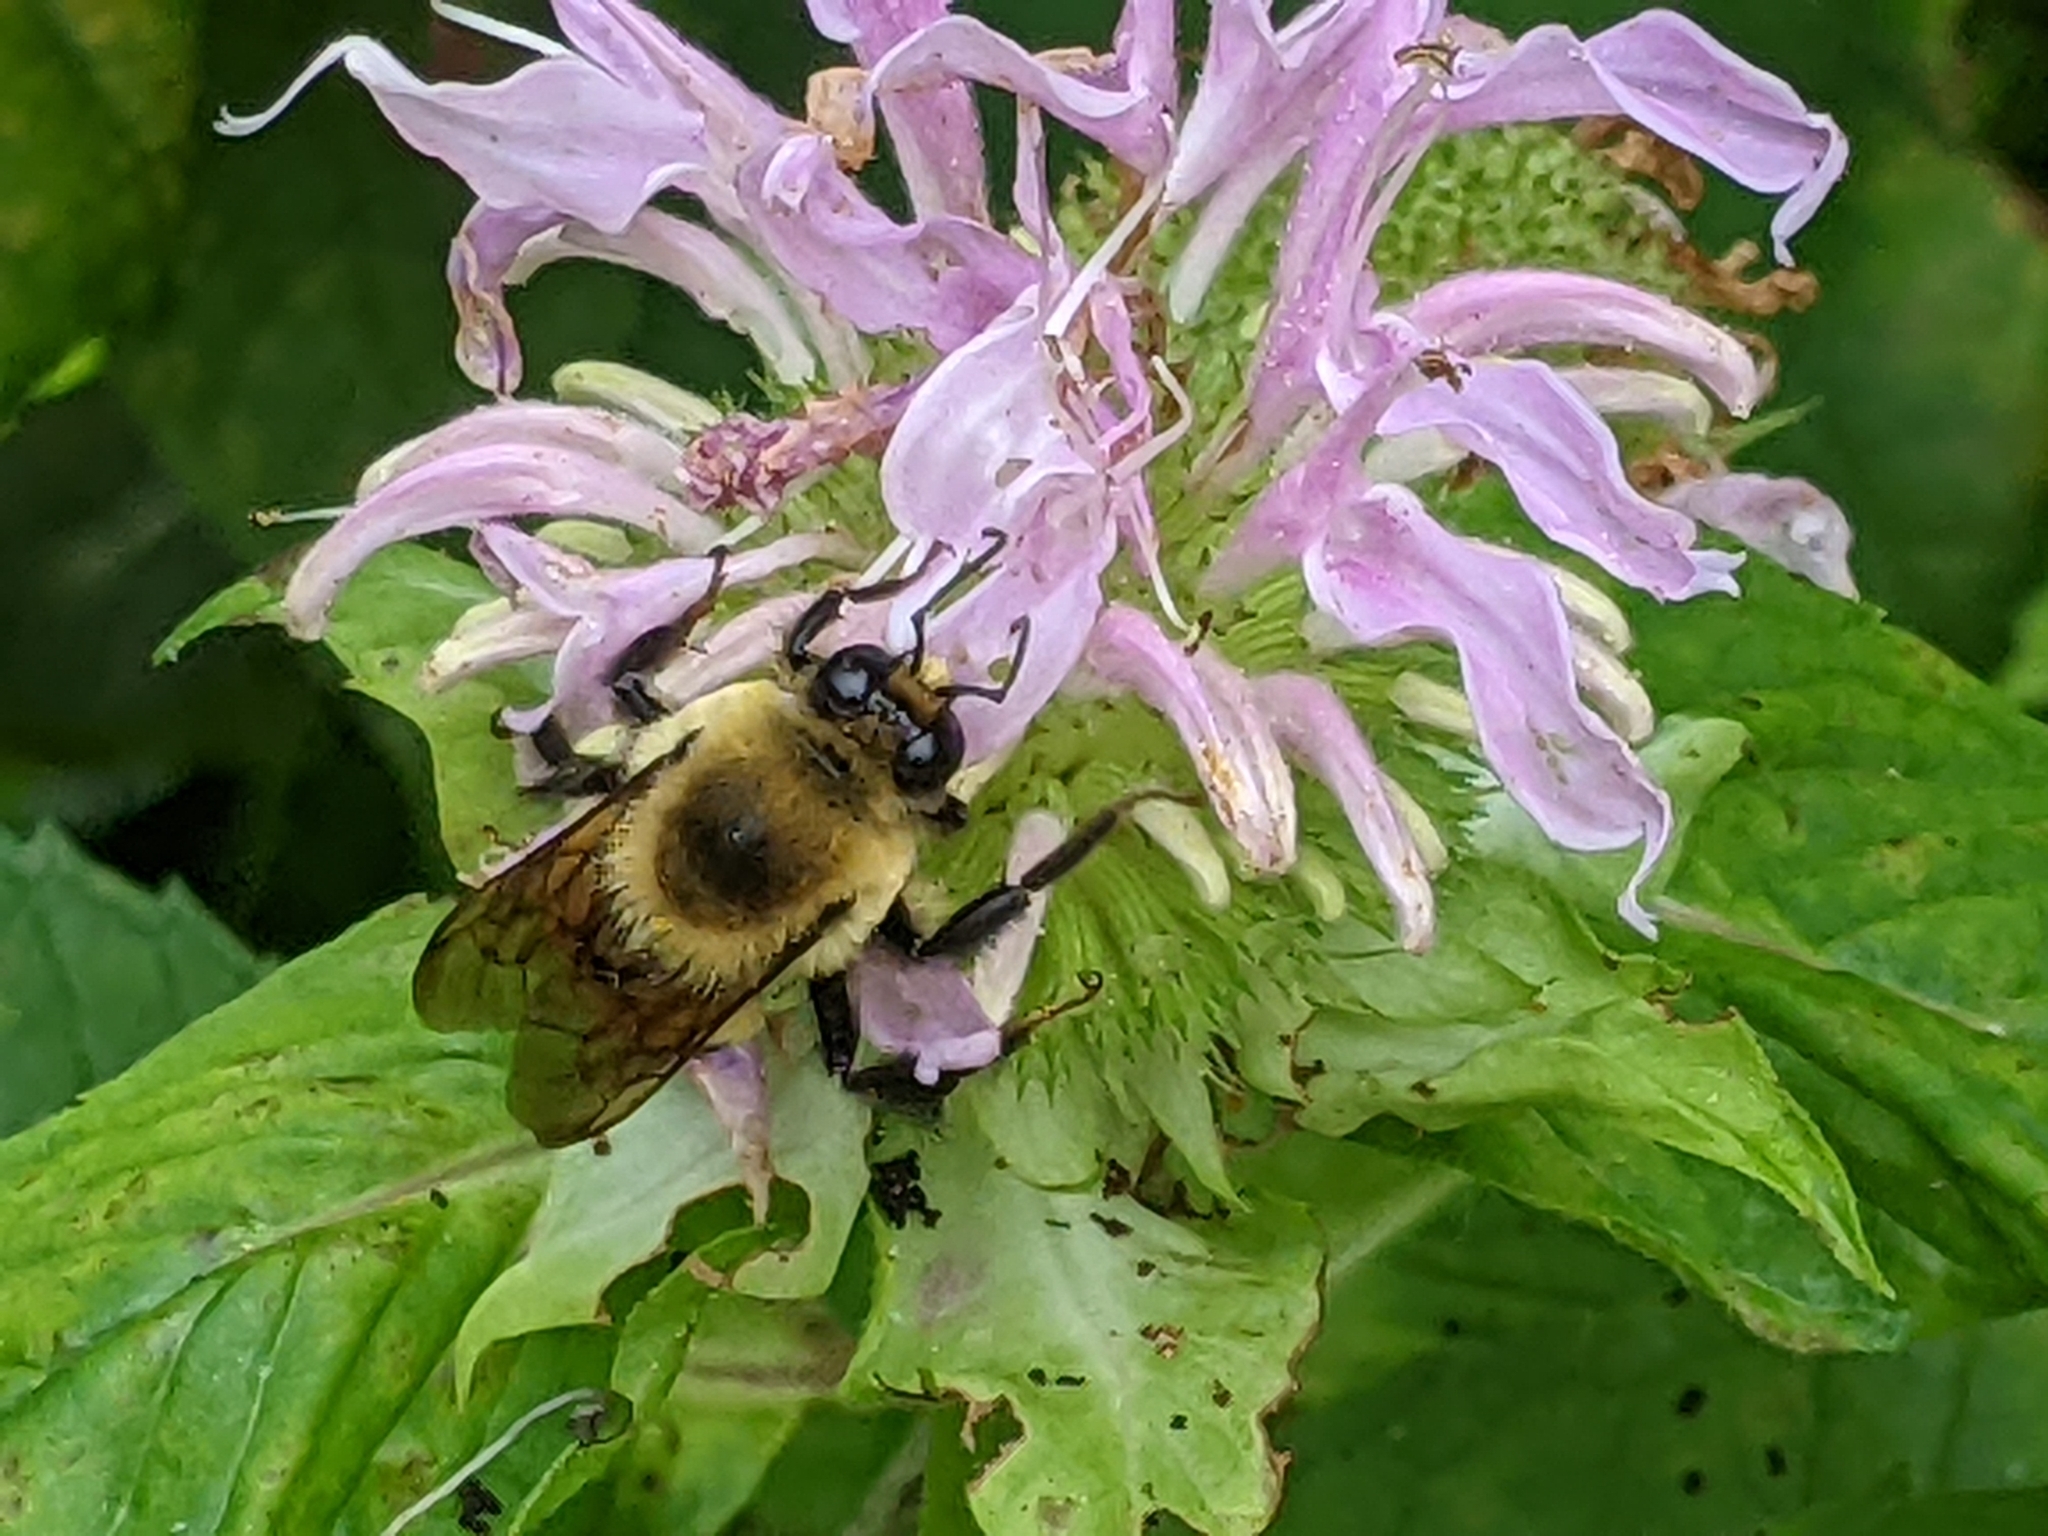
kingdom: Animalia
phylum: Arthropoda
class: Insecta
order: Hymenoptera
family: Apidae
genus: Xylocopa
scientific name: Xylocopa virginica
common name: Carpenter bee
